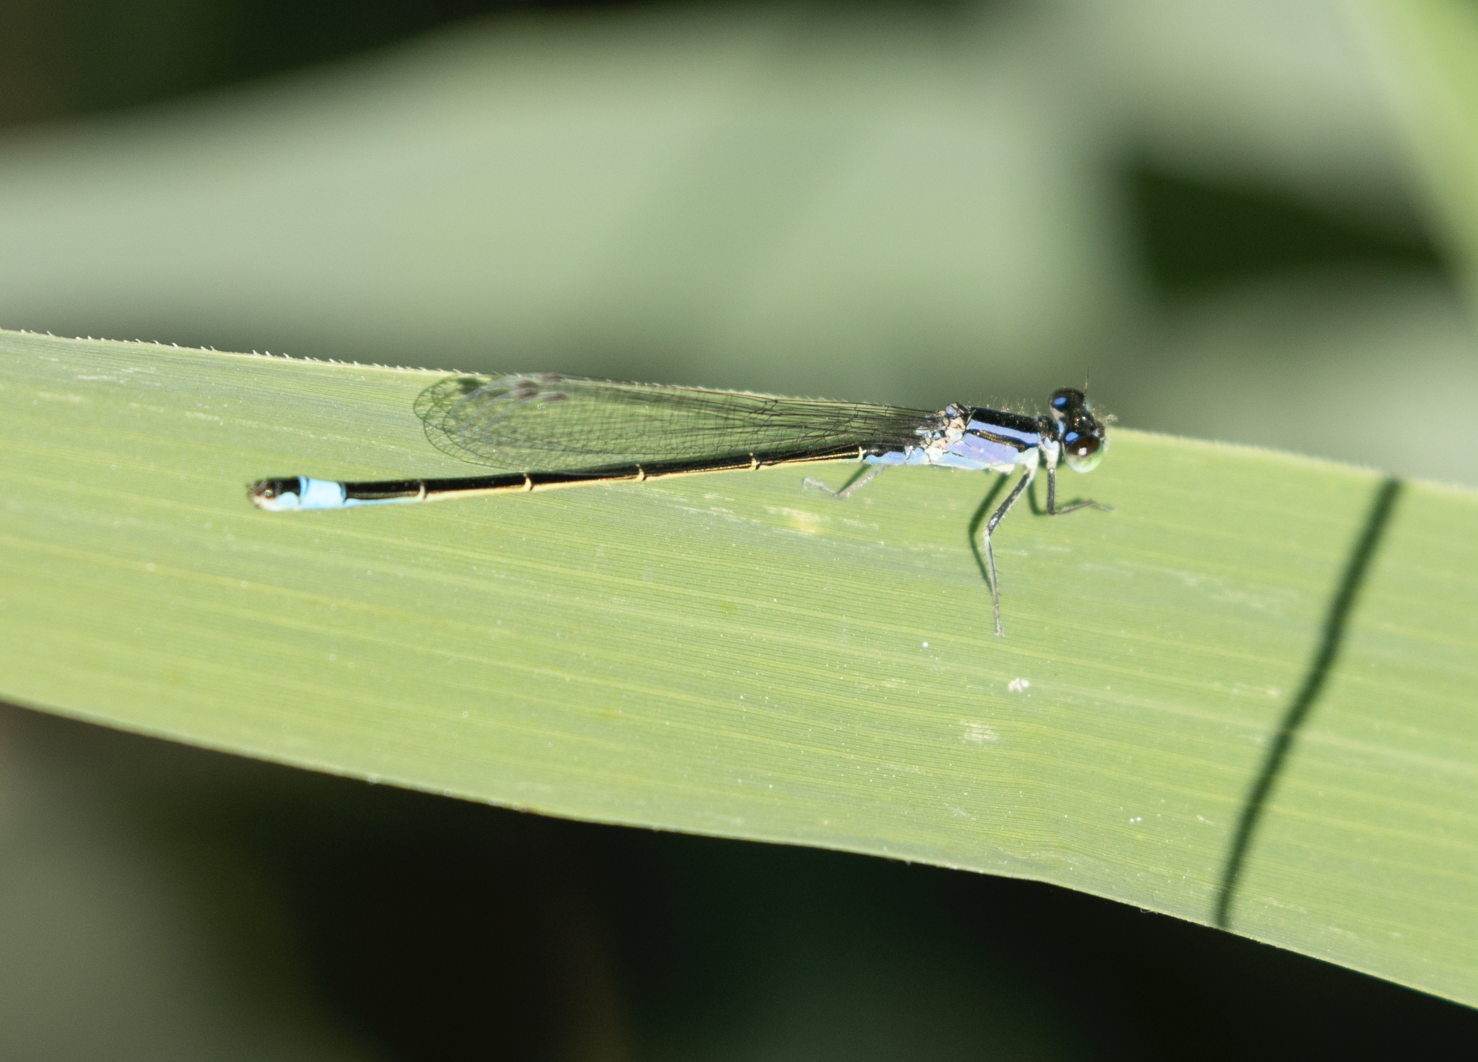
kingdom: Animalia
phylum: Arthropoda
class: Insecta
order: Odonata
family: Coenagrionidae
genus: Ischnura
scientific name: Ischnura elegans
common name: Blue-tailed damselfly
